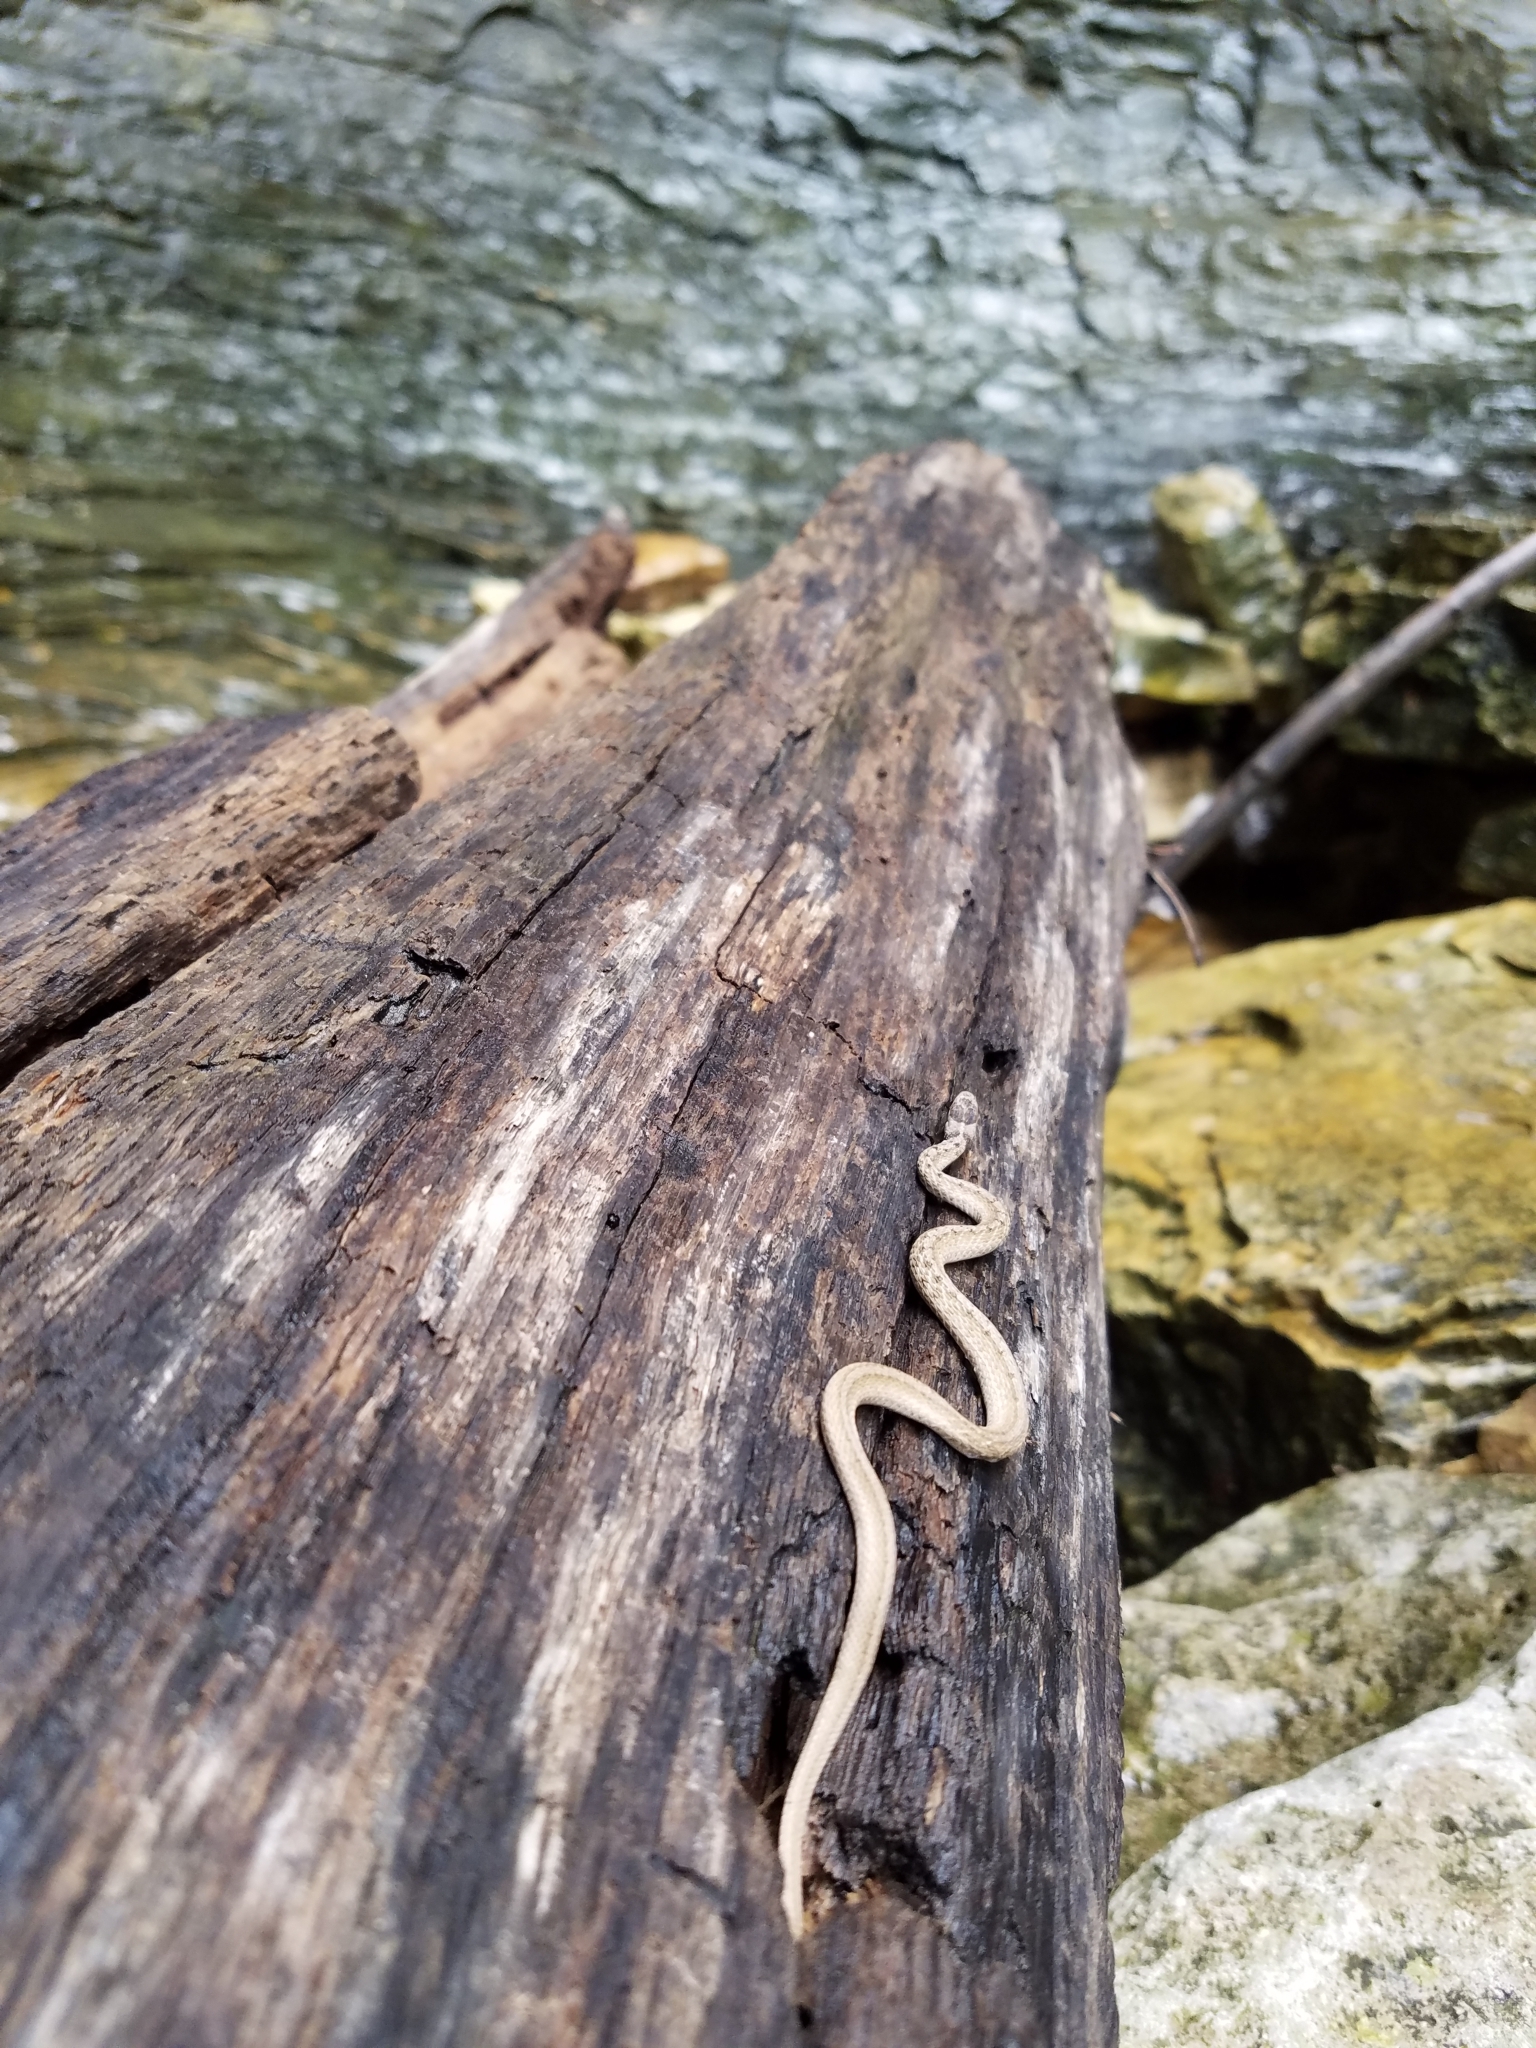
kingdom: Animalia
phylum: Chordata
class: Squamata
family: Colubridae
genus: Storeria
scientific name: Storeria dekayi
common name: (dekay’s) brown snake
